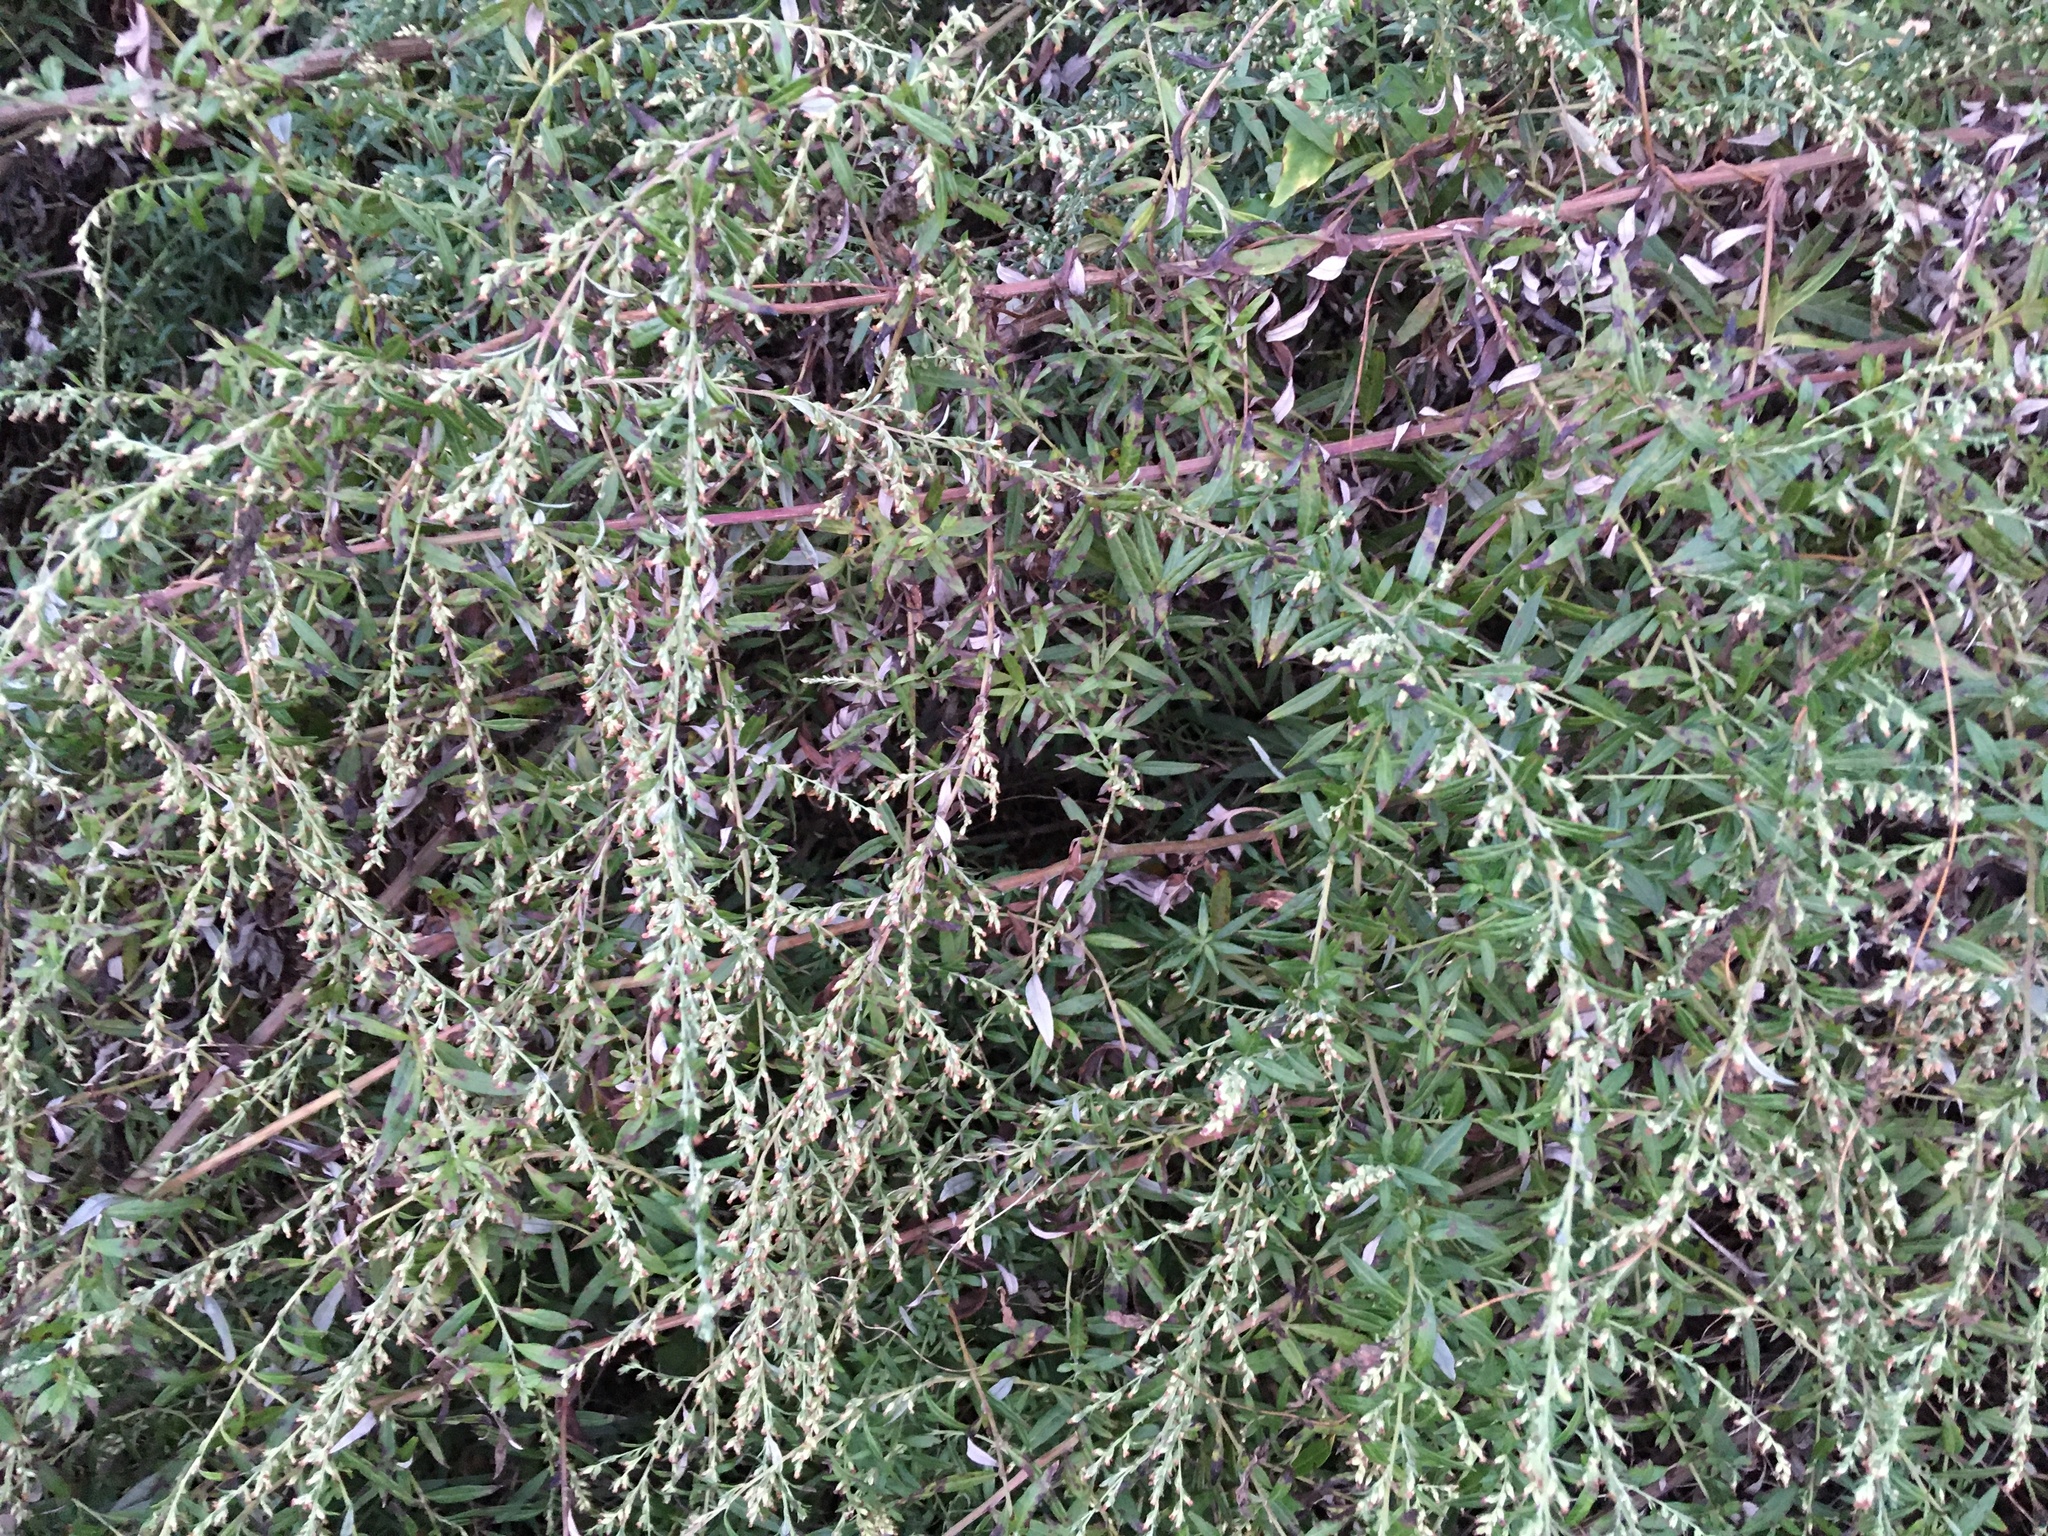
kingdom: Plantae
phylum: Tracheophyta
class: Magnoliopsida
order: Asterales
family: Asteraceae
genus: Artemisia
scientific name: Artemisia vulgaris
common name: Mugwort
